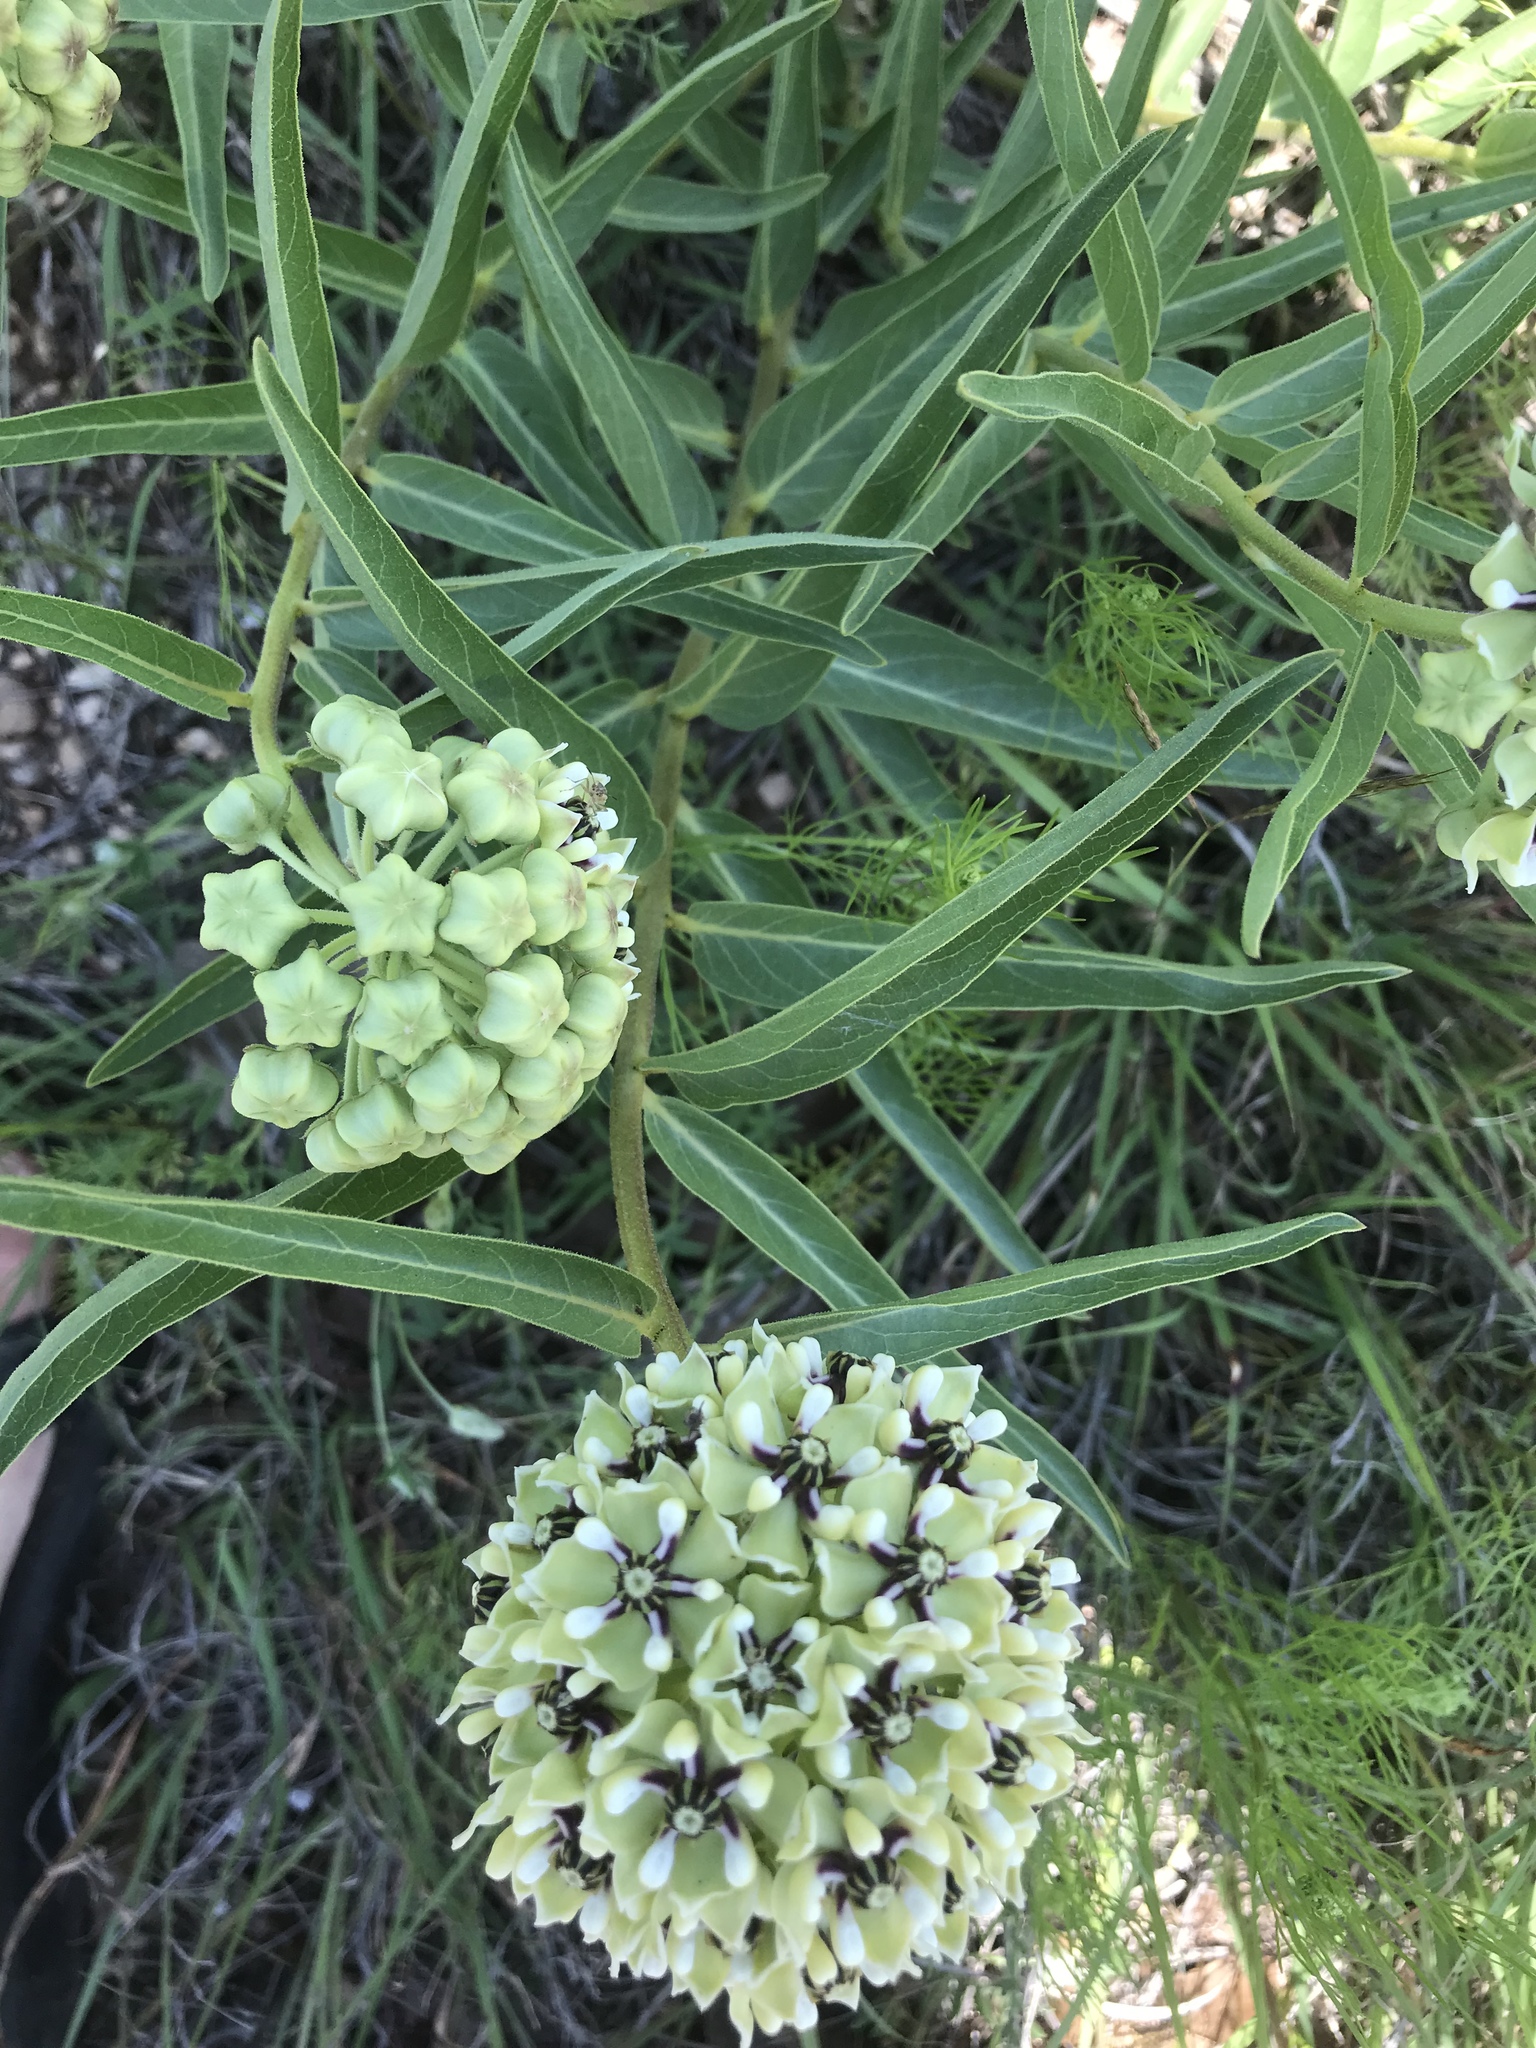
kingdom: Plantae
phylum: Tracheophyta
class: Magnoliopsida
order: Gentianales
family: Apocynaceae
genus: Asclepias
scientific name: Asclepias asperula
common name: Antelope horns
